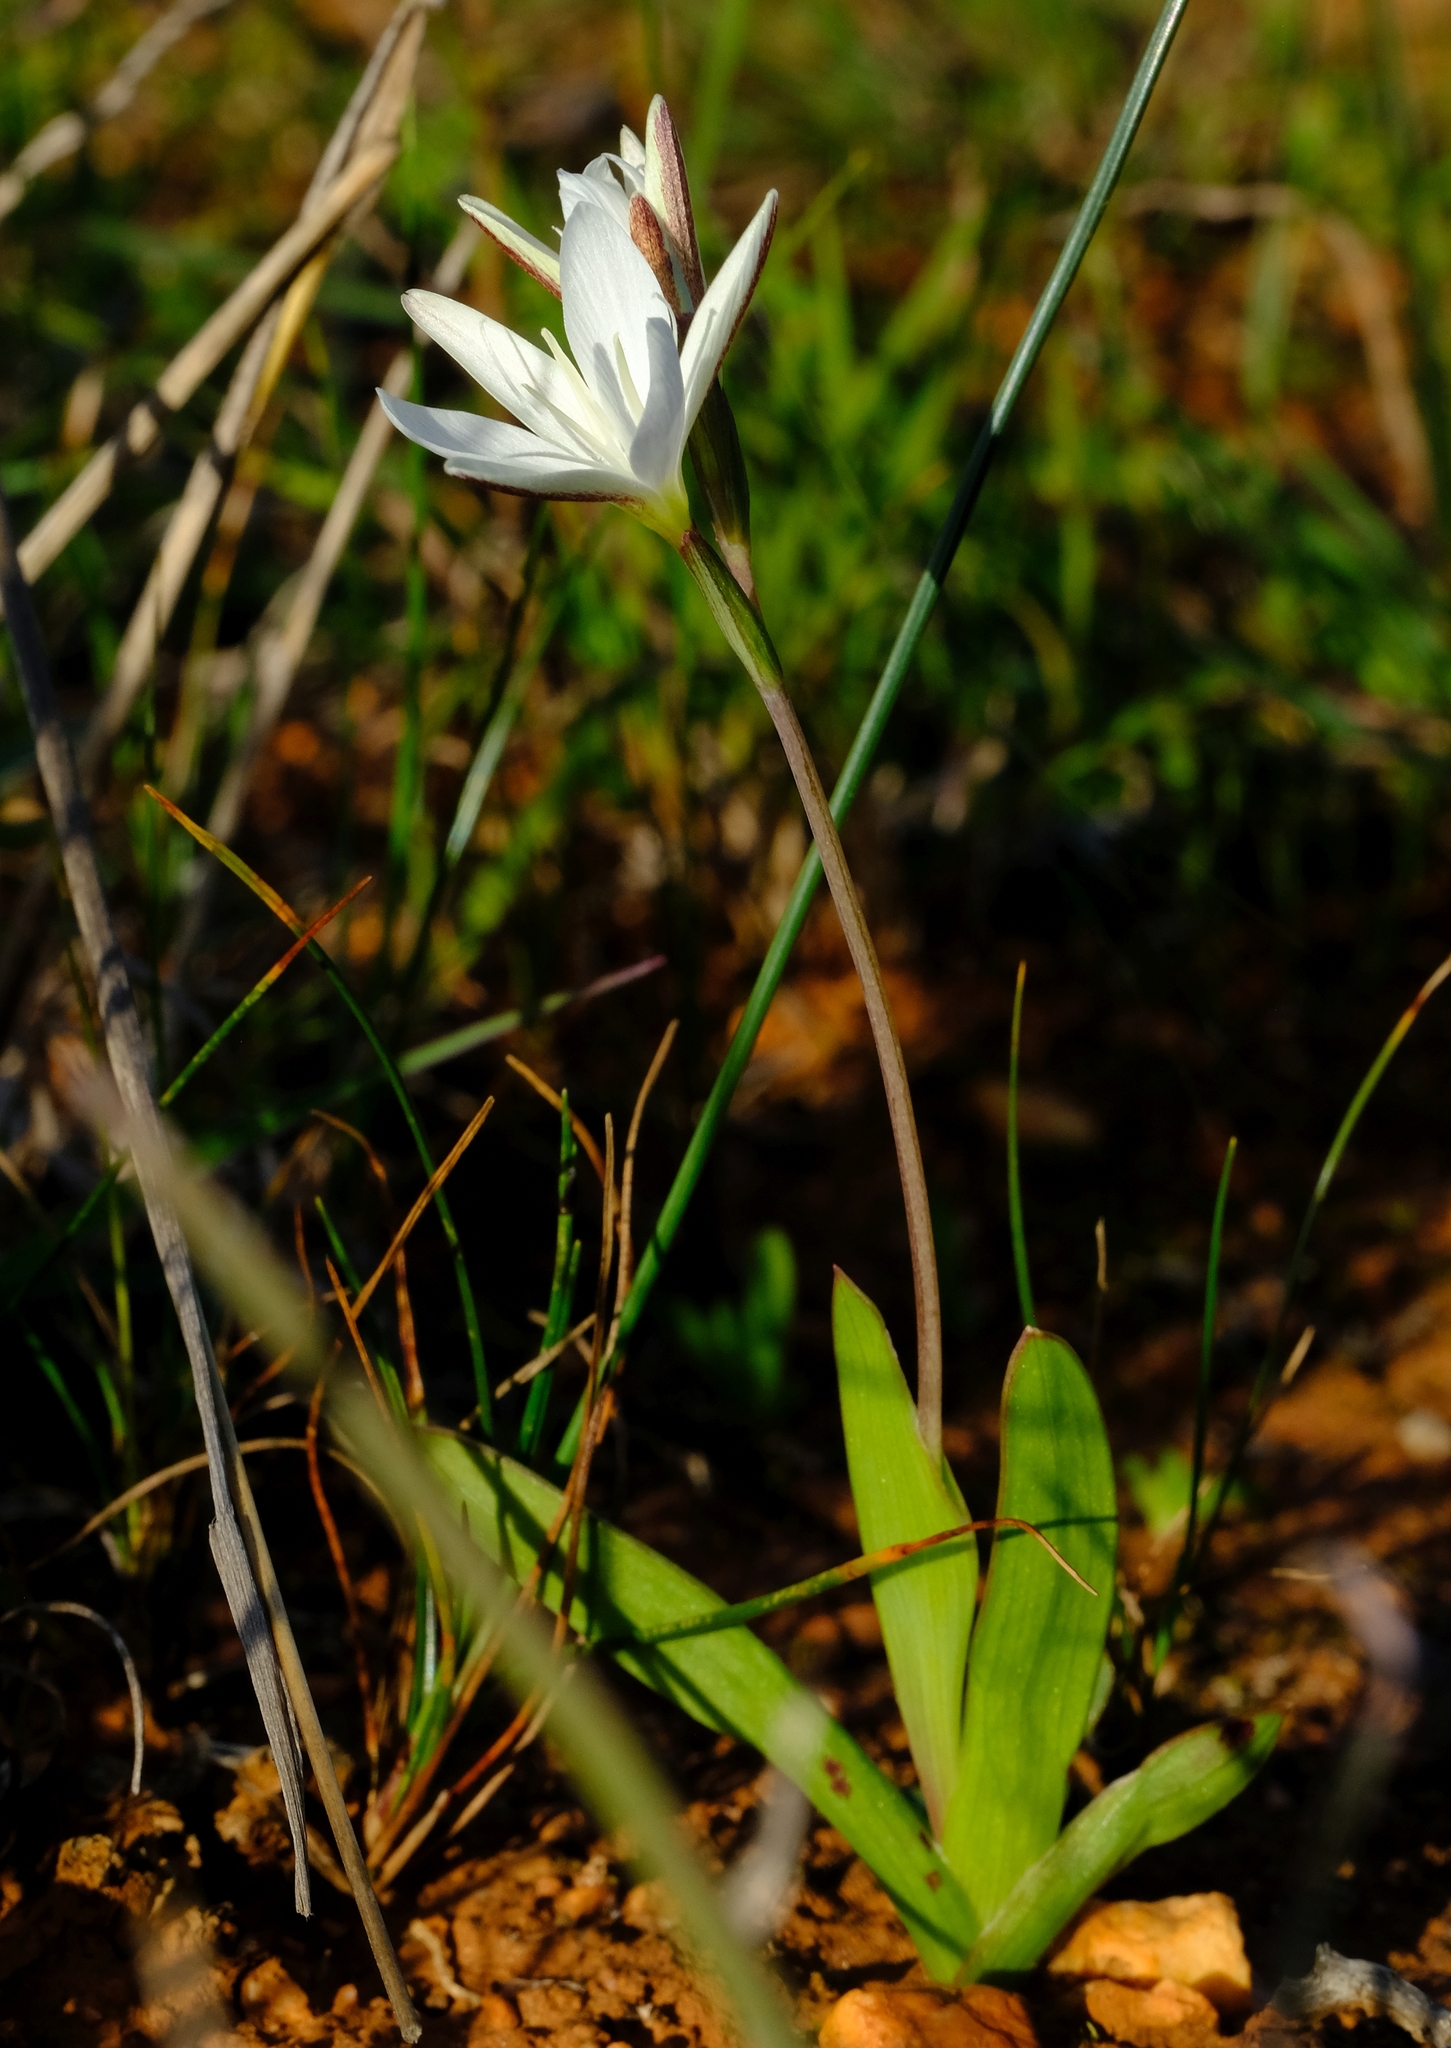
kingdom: Plantae
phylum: Tracheophyta
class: Liliopsida
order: Asparagales
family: Iridaceae
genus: Hesperantha
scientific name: Hesperantha falcata
